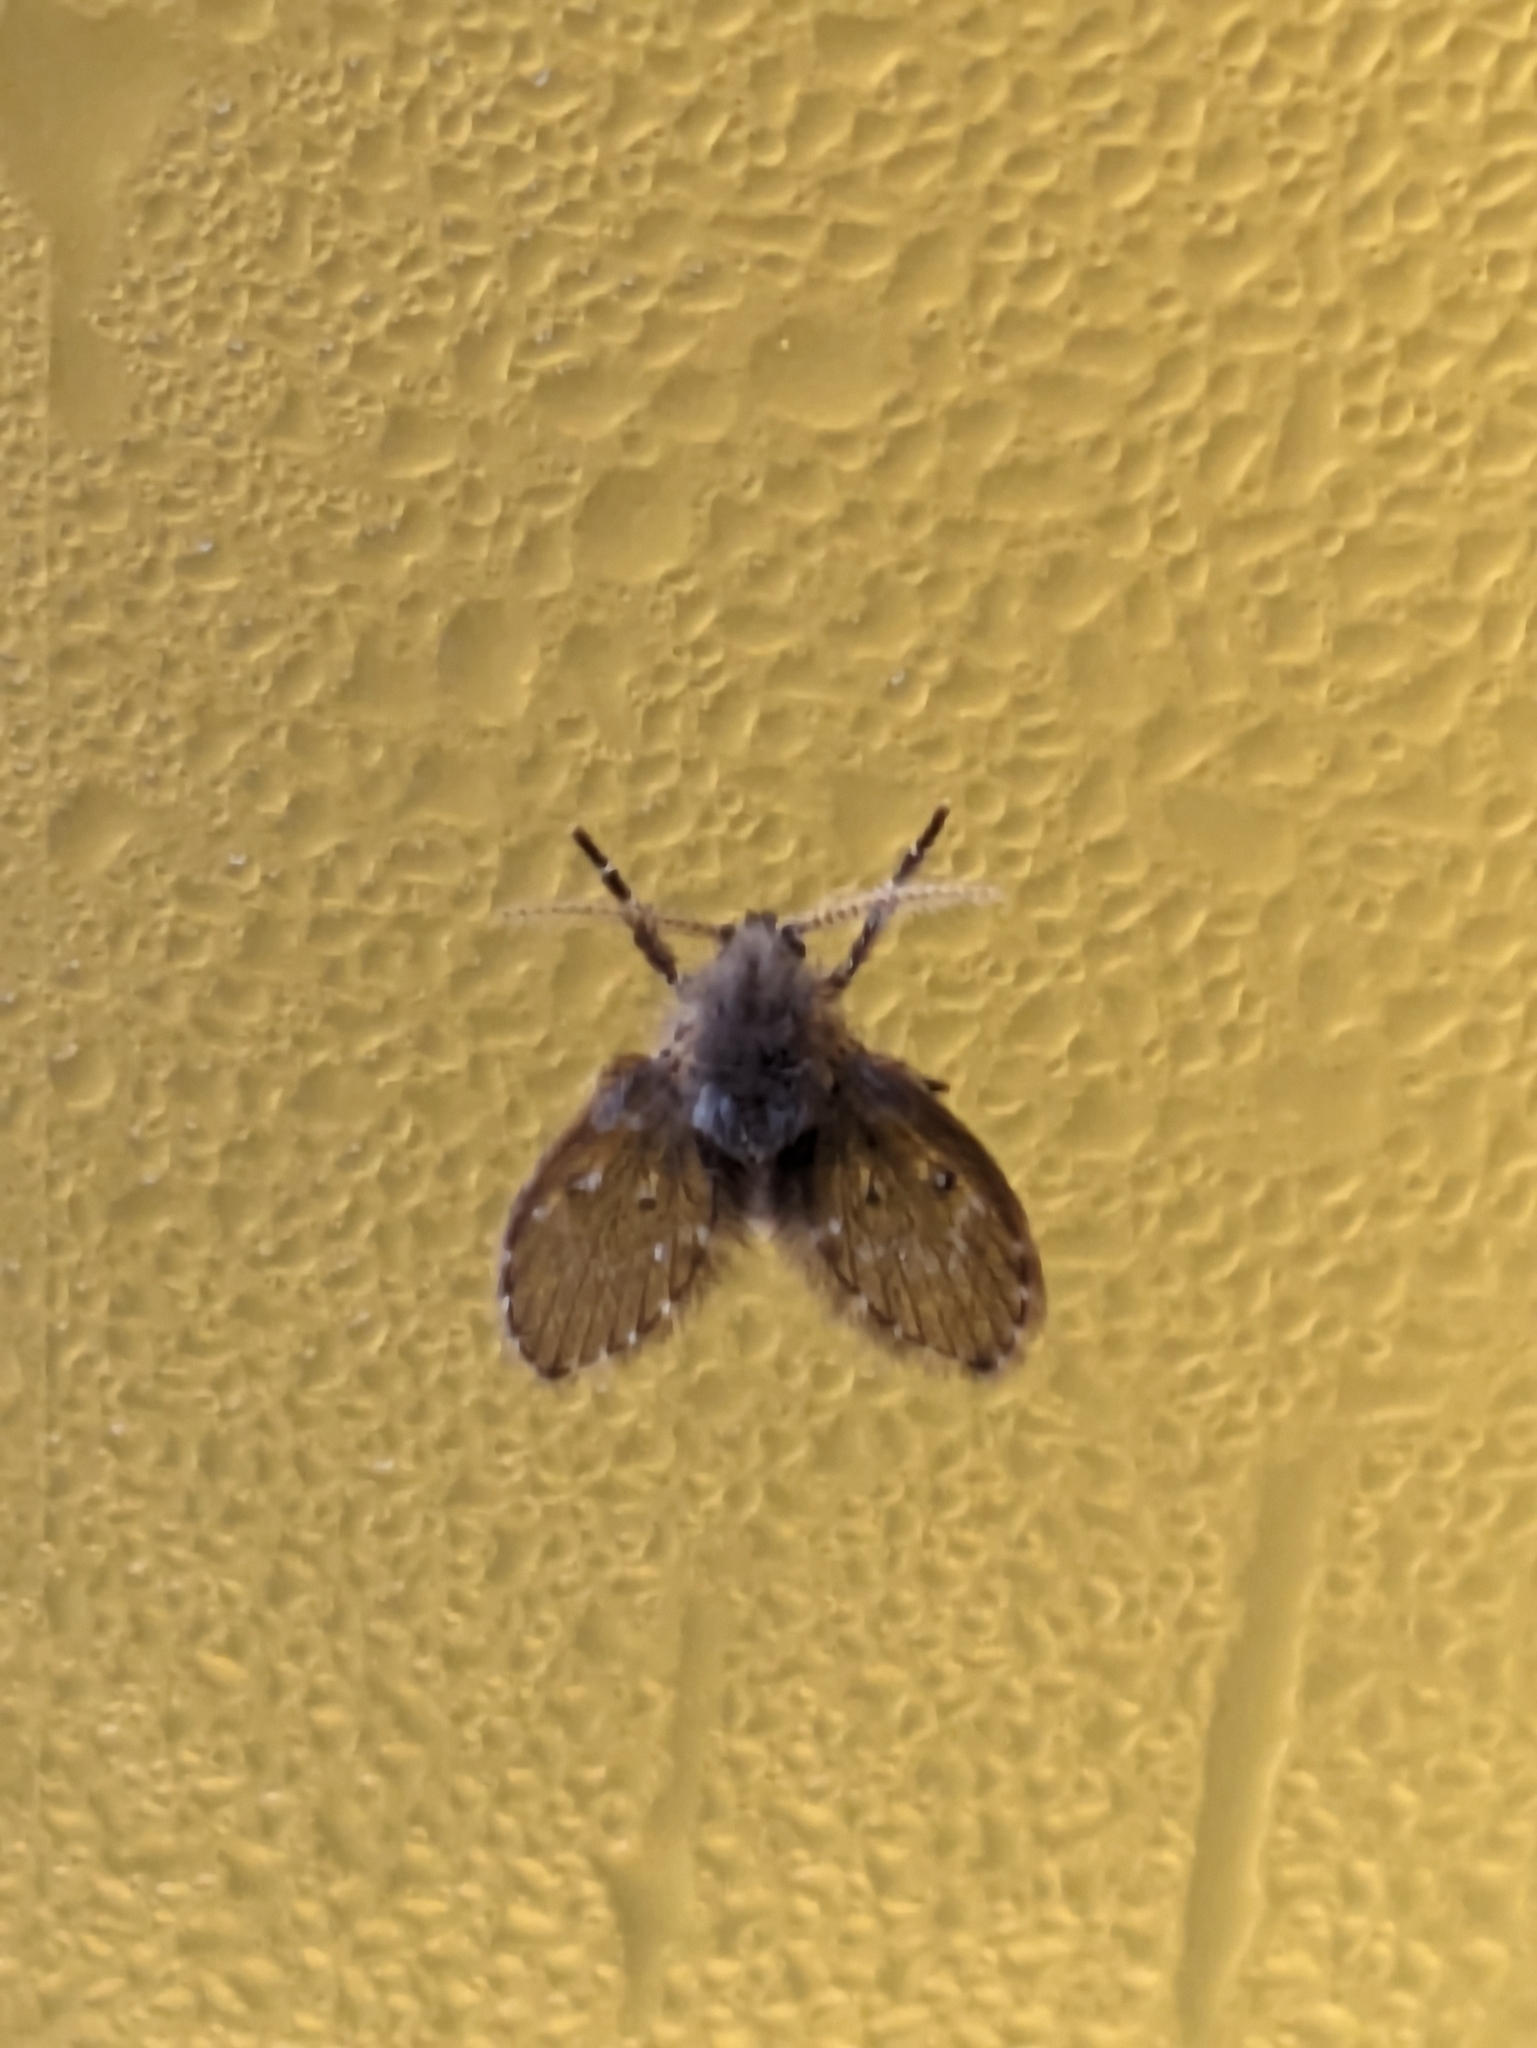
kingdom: Animalia
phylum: Arthropoda
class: Insecta
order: Diptera
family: Psychodidae
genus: Clogmia
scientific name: Clogmia albipunctatus
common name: White-spotted moth fly
